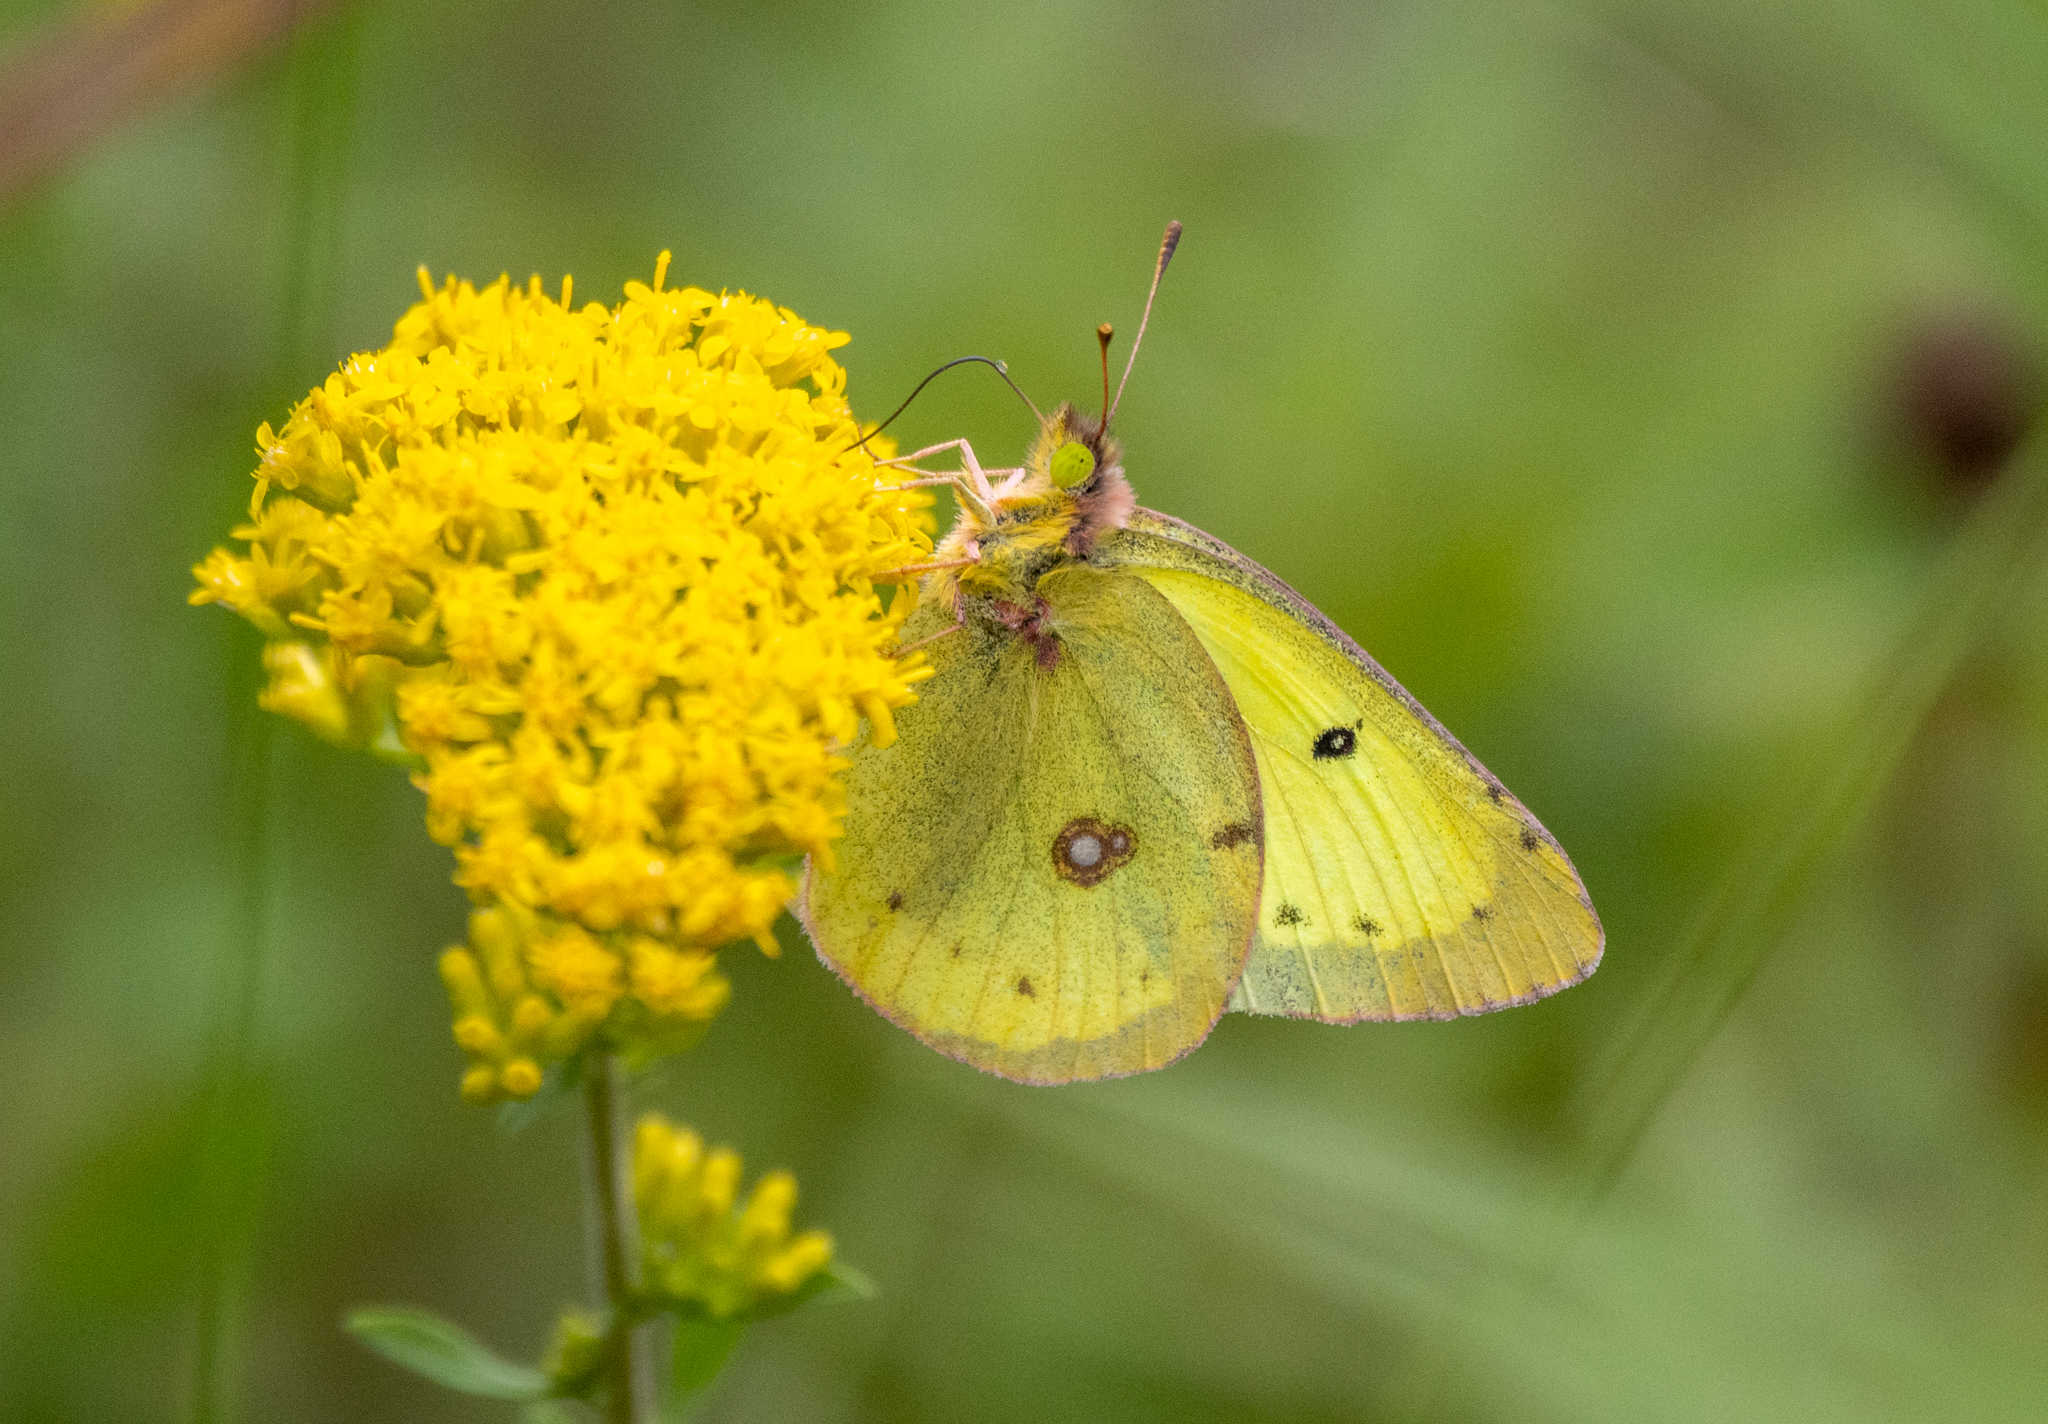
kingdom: Animalia
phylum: Arthropoda
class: Insecta
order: Lepidoptera
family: Pieridae
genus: Colias
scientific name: Colias philodice
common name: Clouded sulphur
